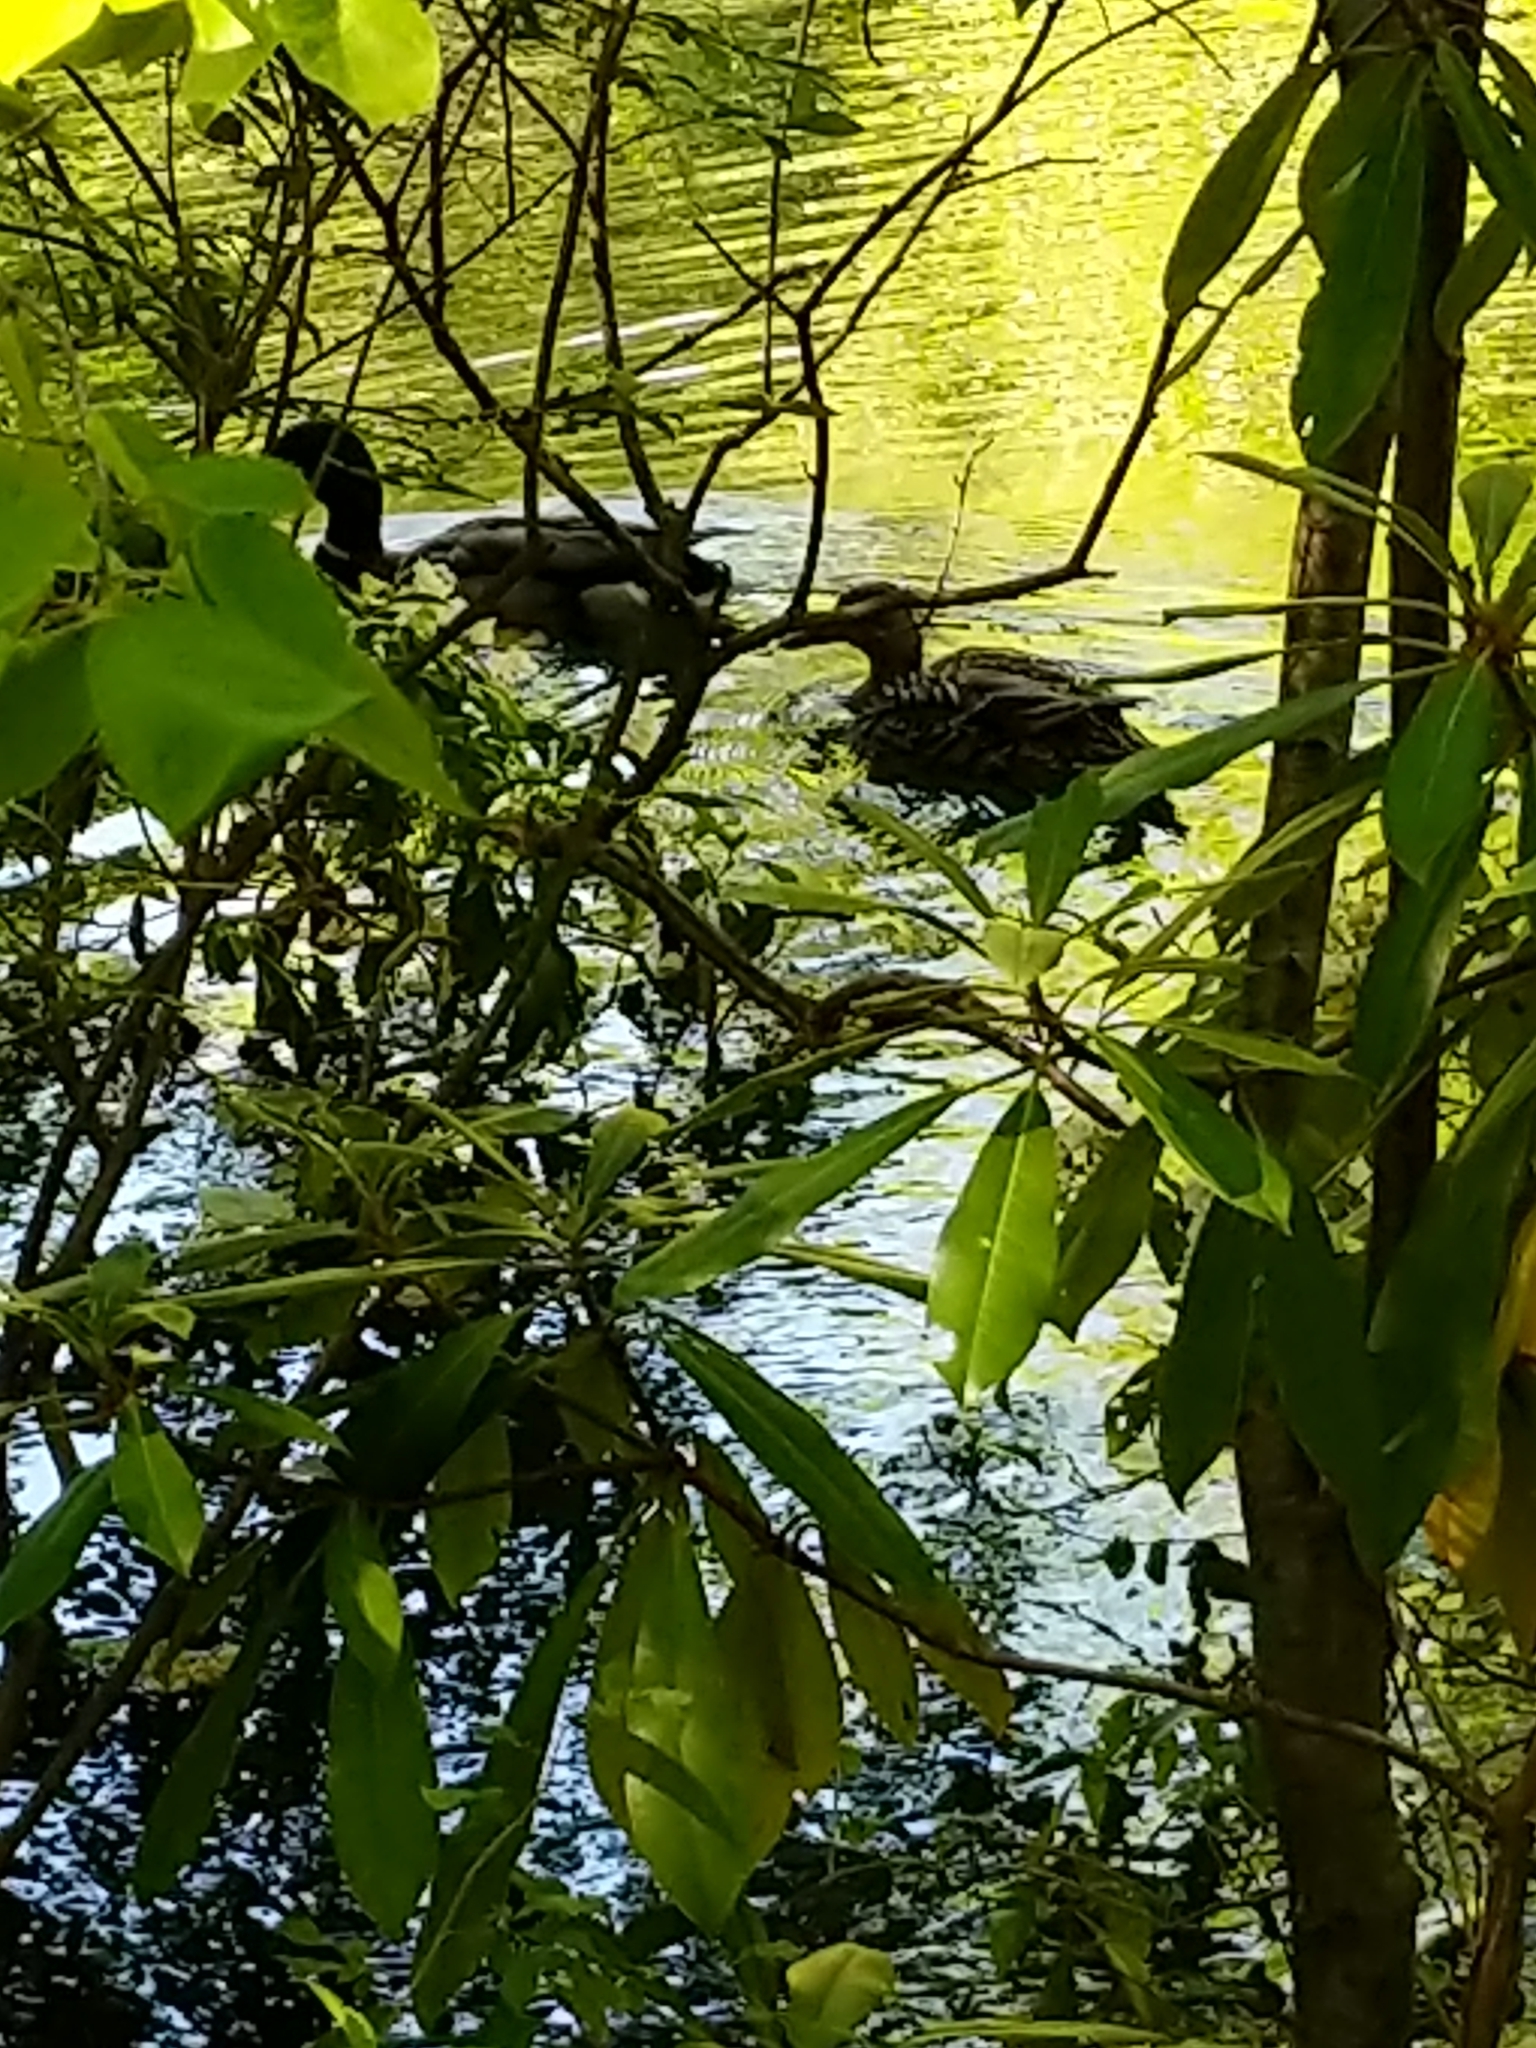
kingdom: Animalia
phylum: Chordata
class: Aves
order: Anseriformes
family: Anatidae
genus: Anas
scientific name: Anas platyrhynchos
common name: Mallard
